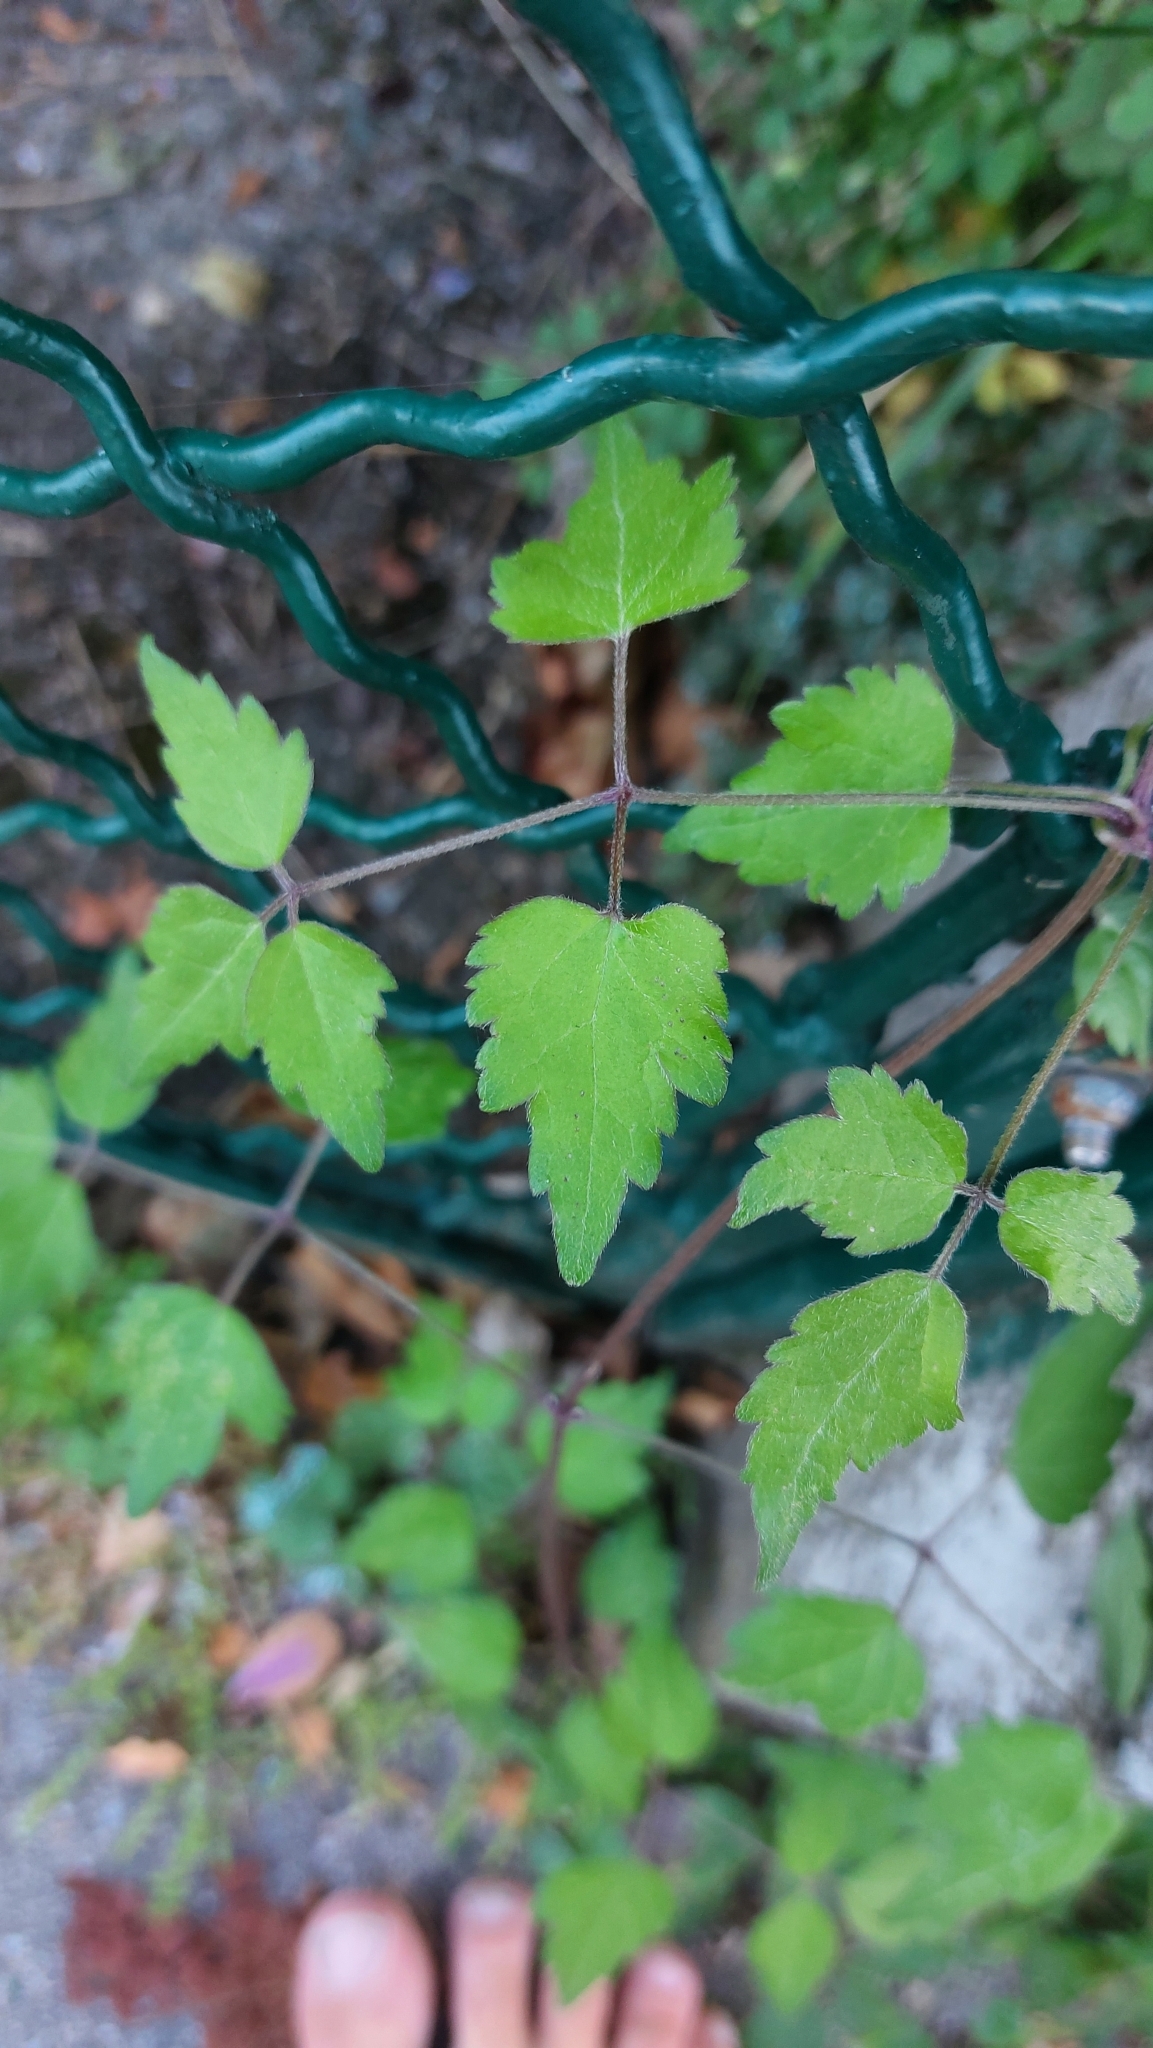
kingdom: Plantae
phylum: Tracheophyta
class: Magnoliopsida
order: Ranunculales
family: Ranunculaceae
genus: Clematis
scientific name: Clematis vitalba
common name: Evergreen clematis
